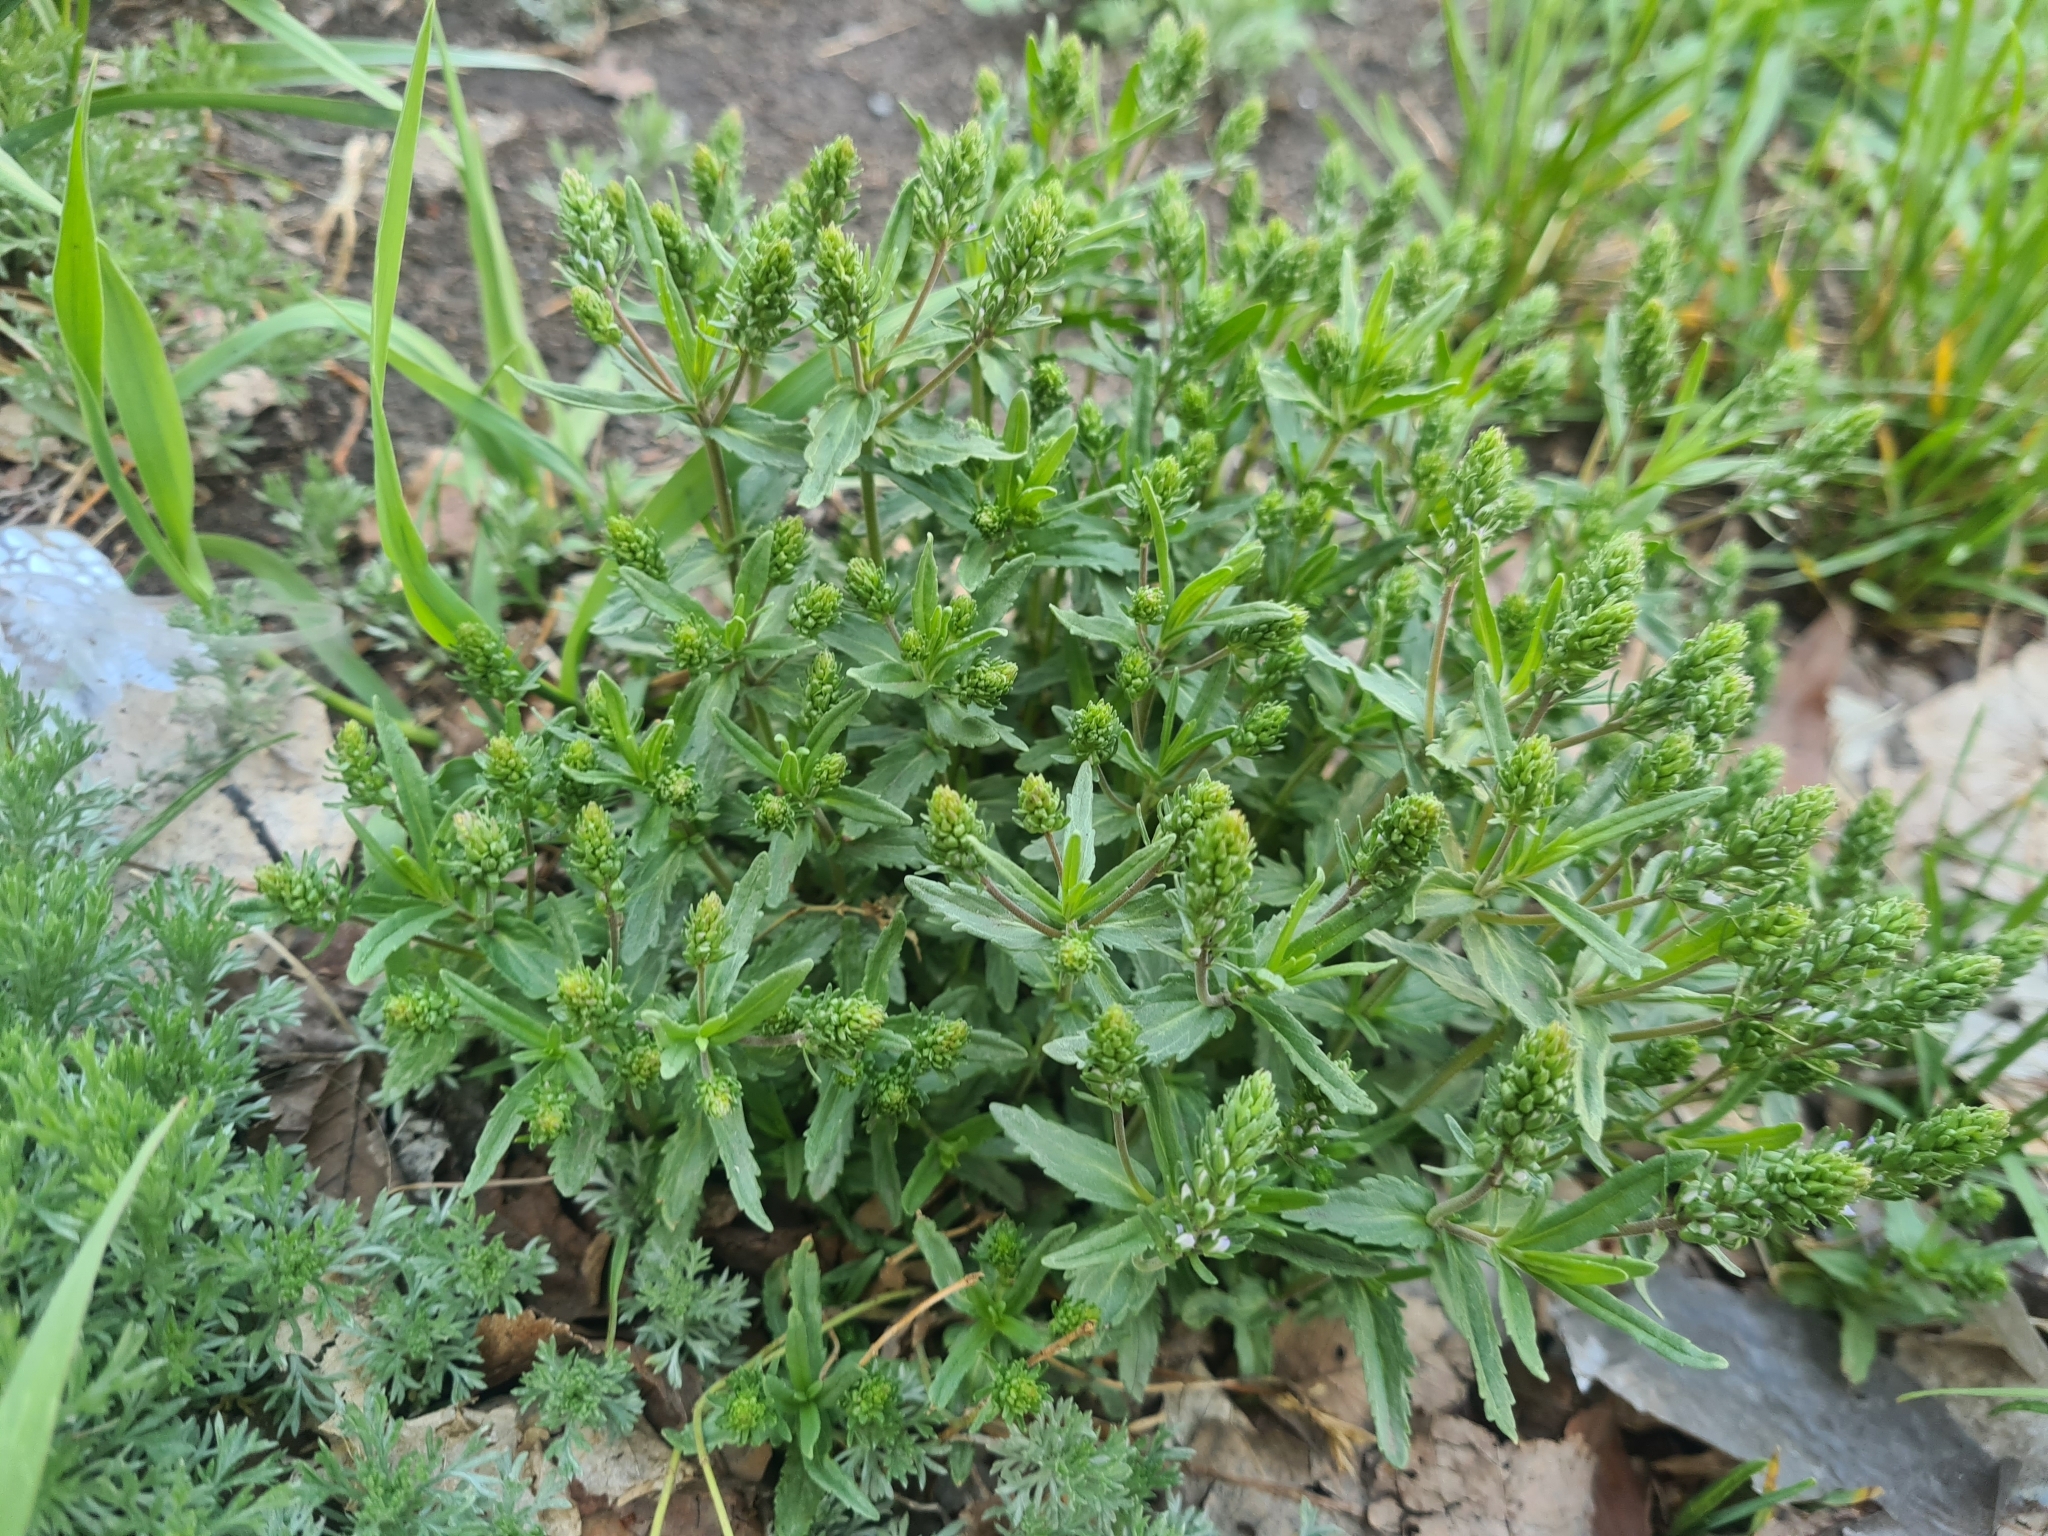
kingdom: Plantae
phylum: Tracheophyta
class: Magnoliopsida
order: Lamiales
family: Plantaginaceae
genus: Veronica
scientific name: Veronica prostrata
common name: Prostrate speedwell
